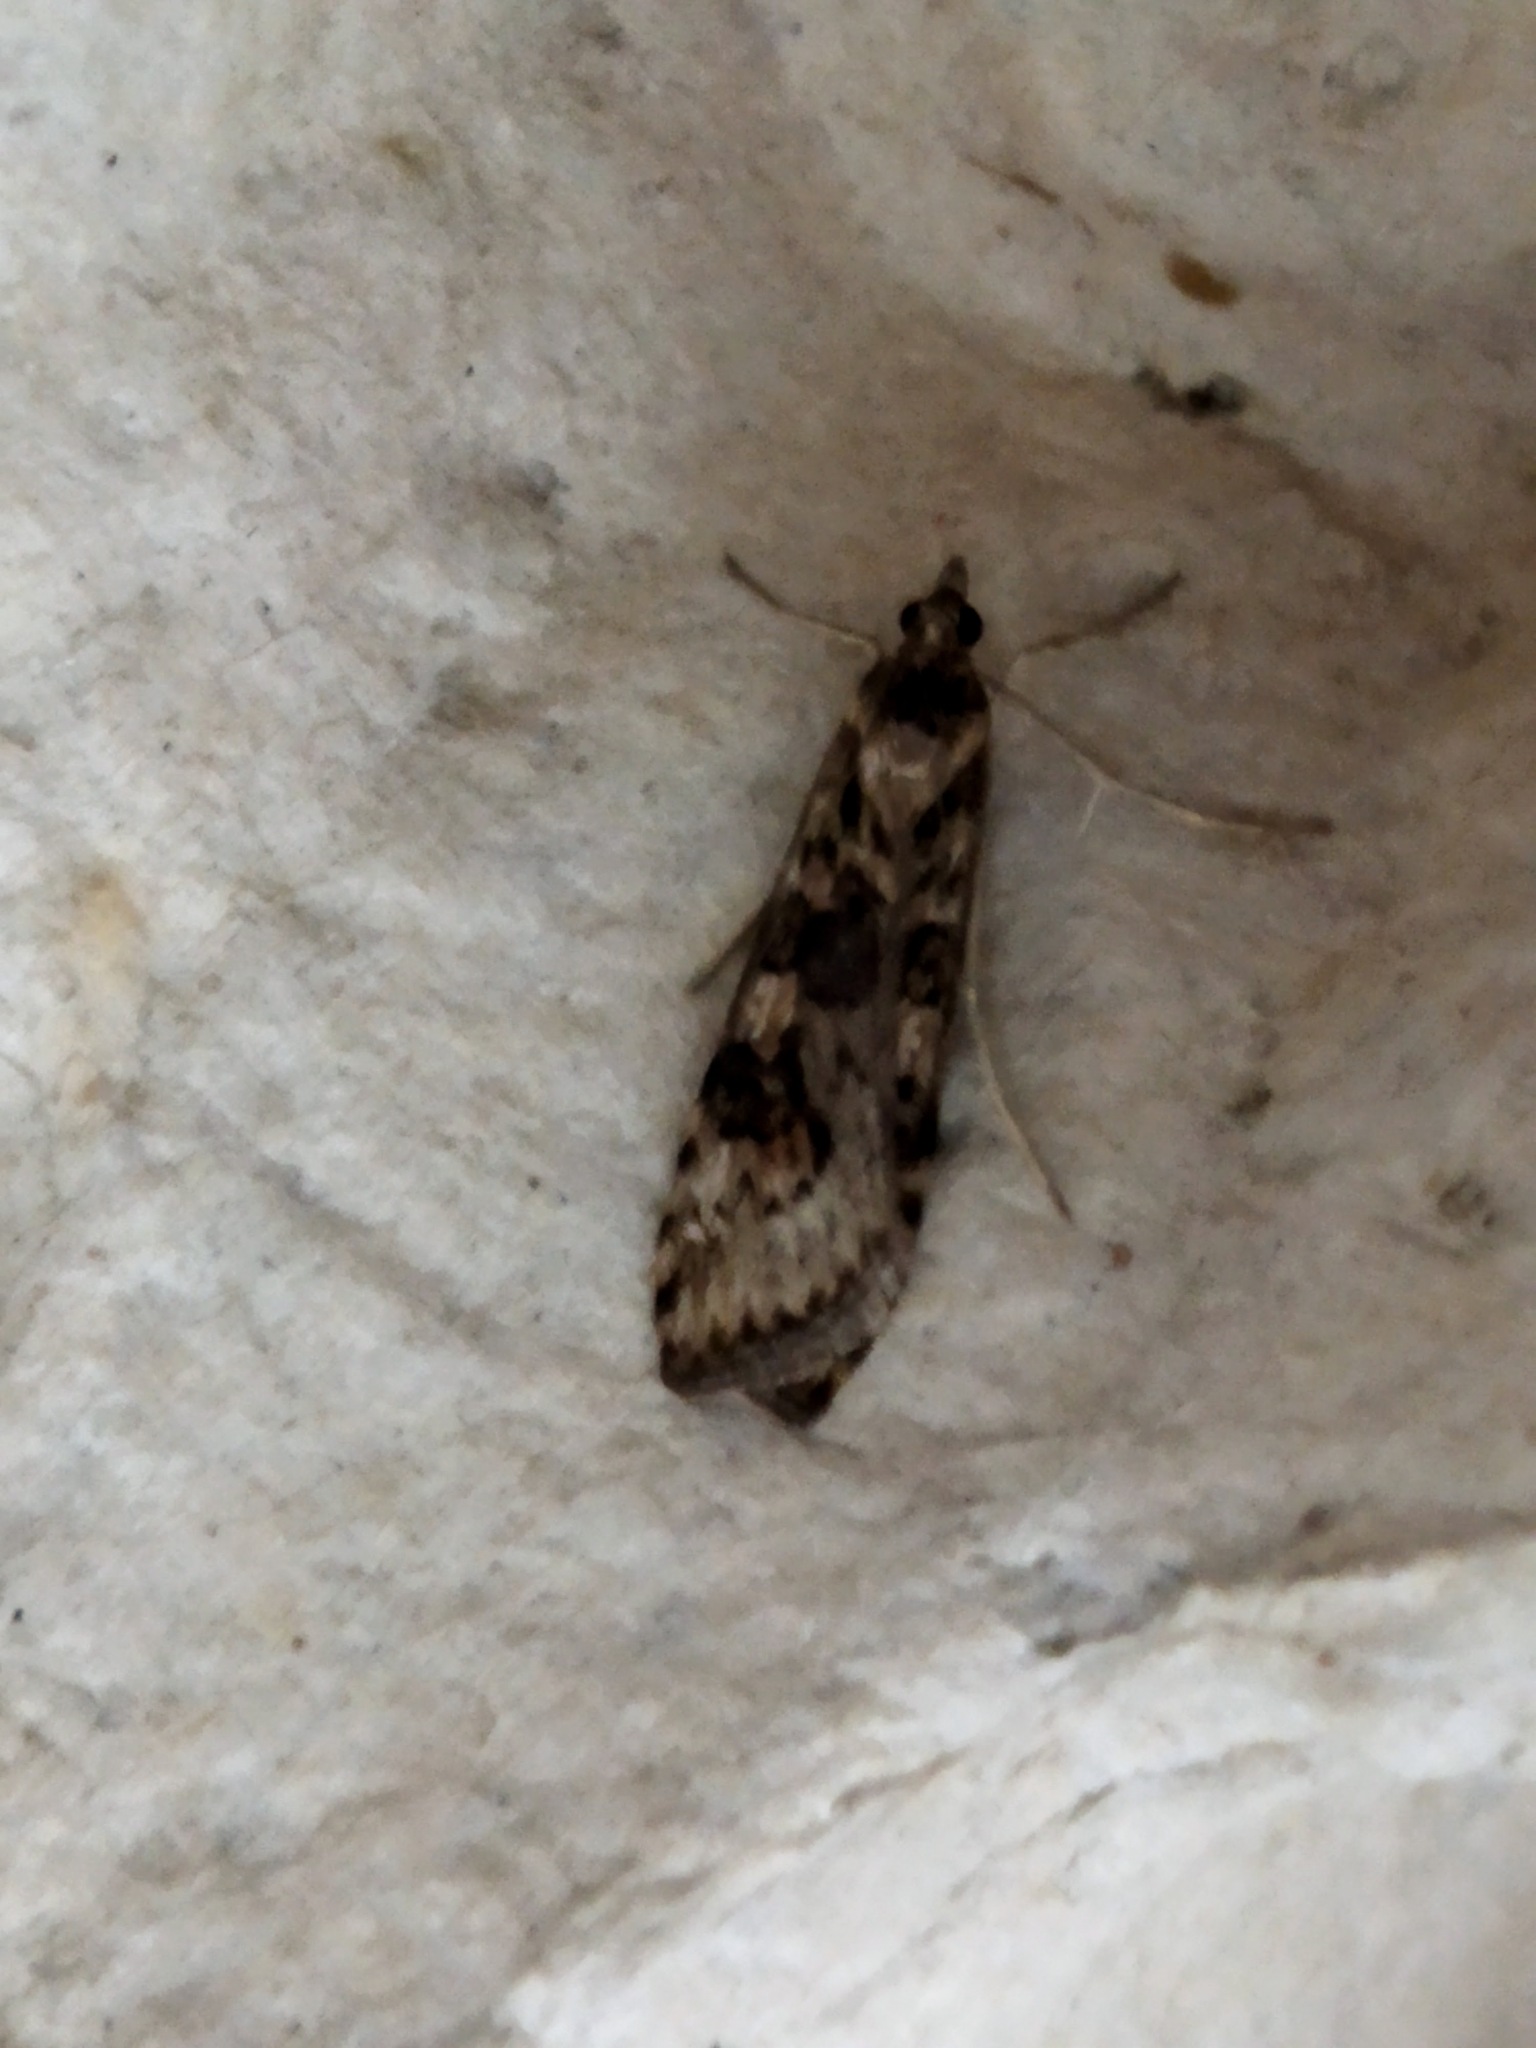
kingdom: Animalia
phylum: Arthropoda
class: Insecta
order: Lepidoptera
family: Crambidae
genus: Nomophila
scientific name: Nomophila noctuella
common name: Rush veneer
